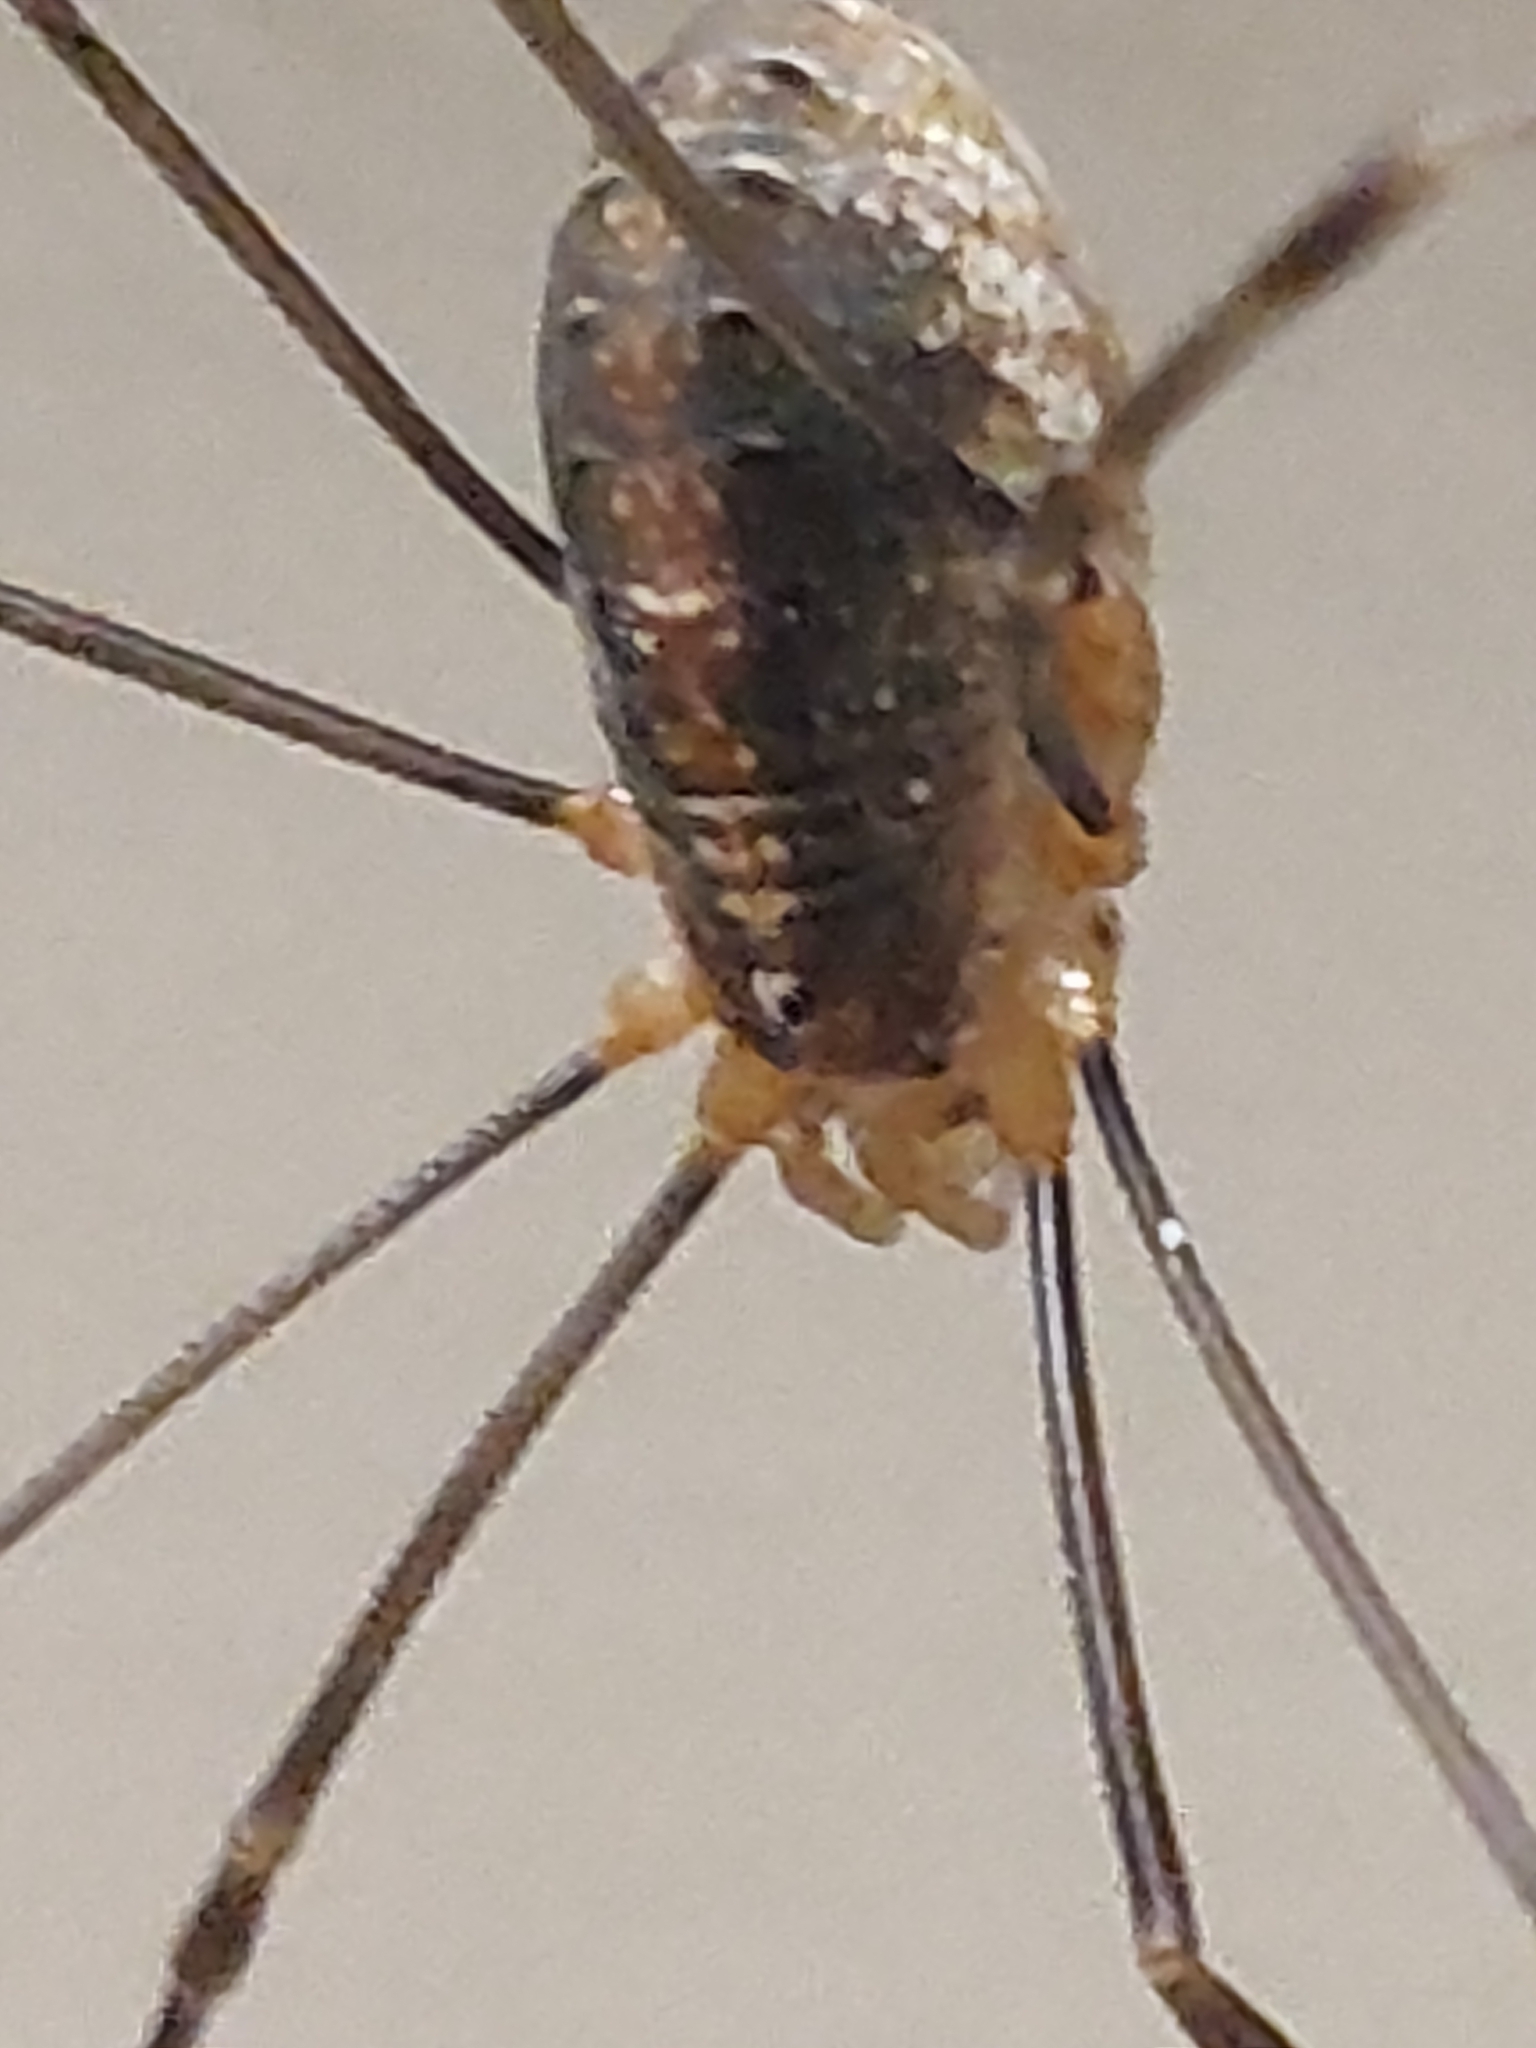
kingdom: Animalia
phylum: Arthropoda
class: Arachnida
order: Opiliones
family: Phalangiidae
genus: Opilio
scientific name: Opilio canestrinii
